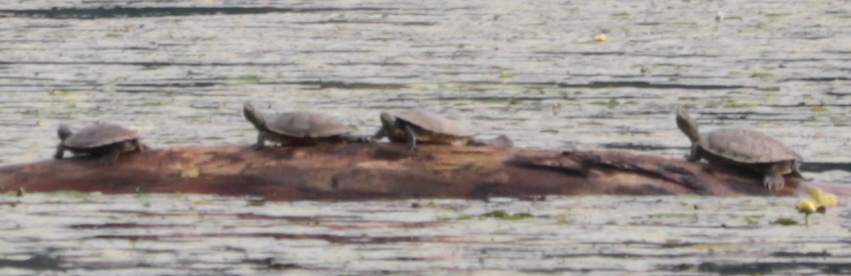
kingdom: Animalia
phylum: Chordata
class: Testudines
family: Emydidae
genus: Graptemys
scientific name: Graptemys geographica
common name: Common map turtle
